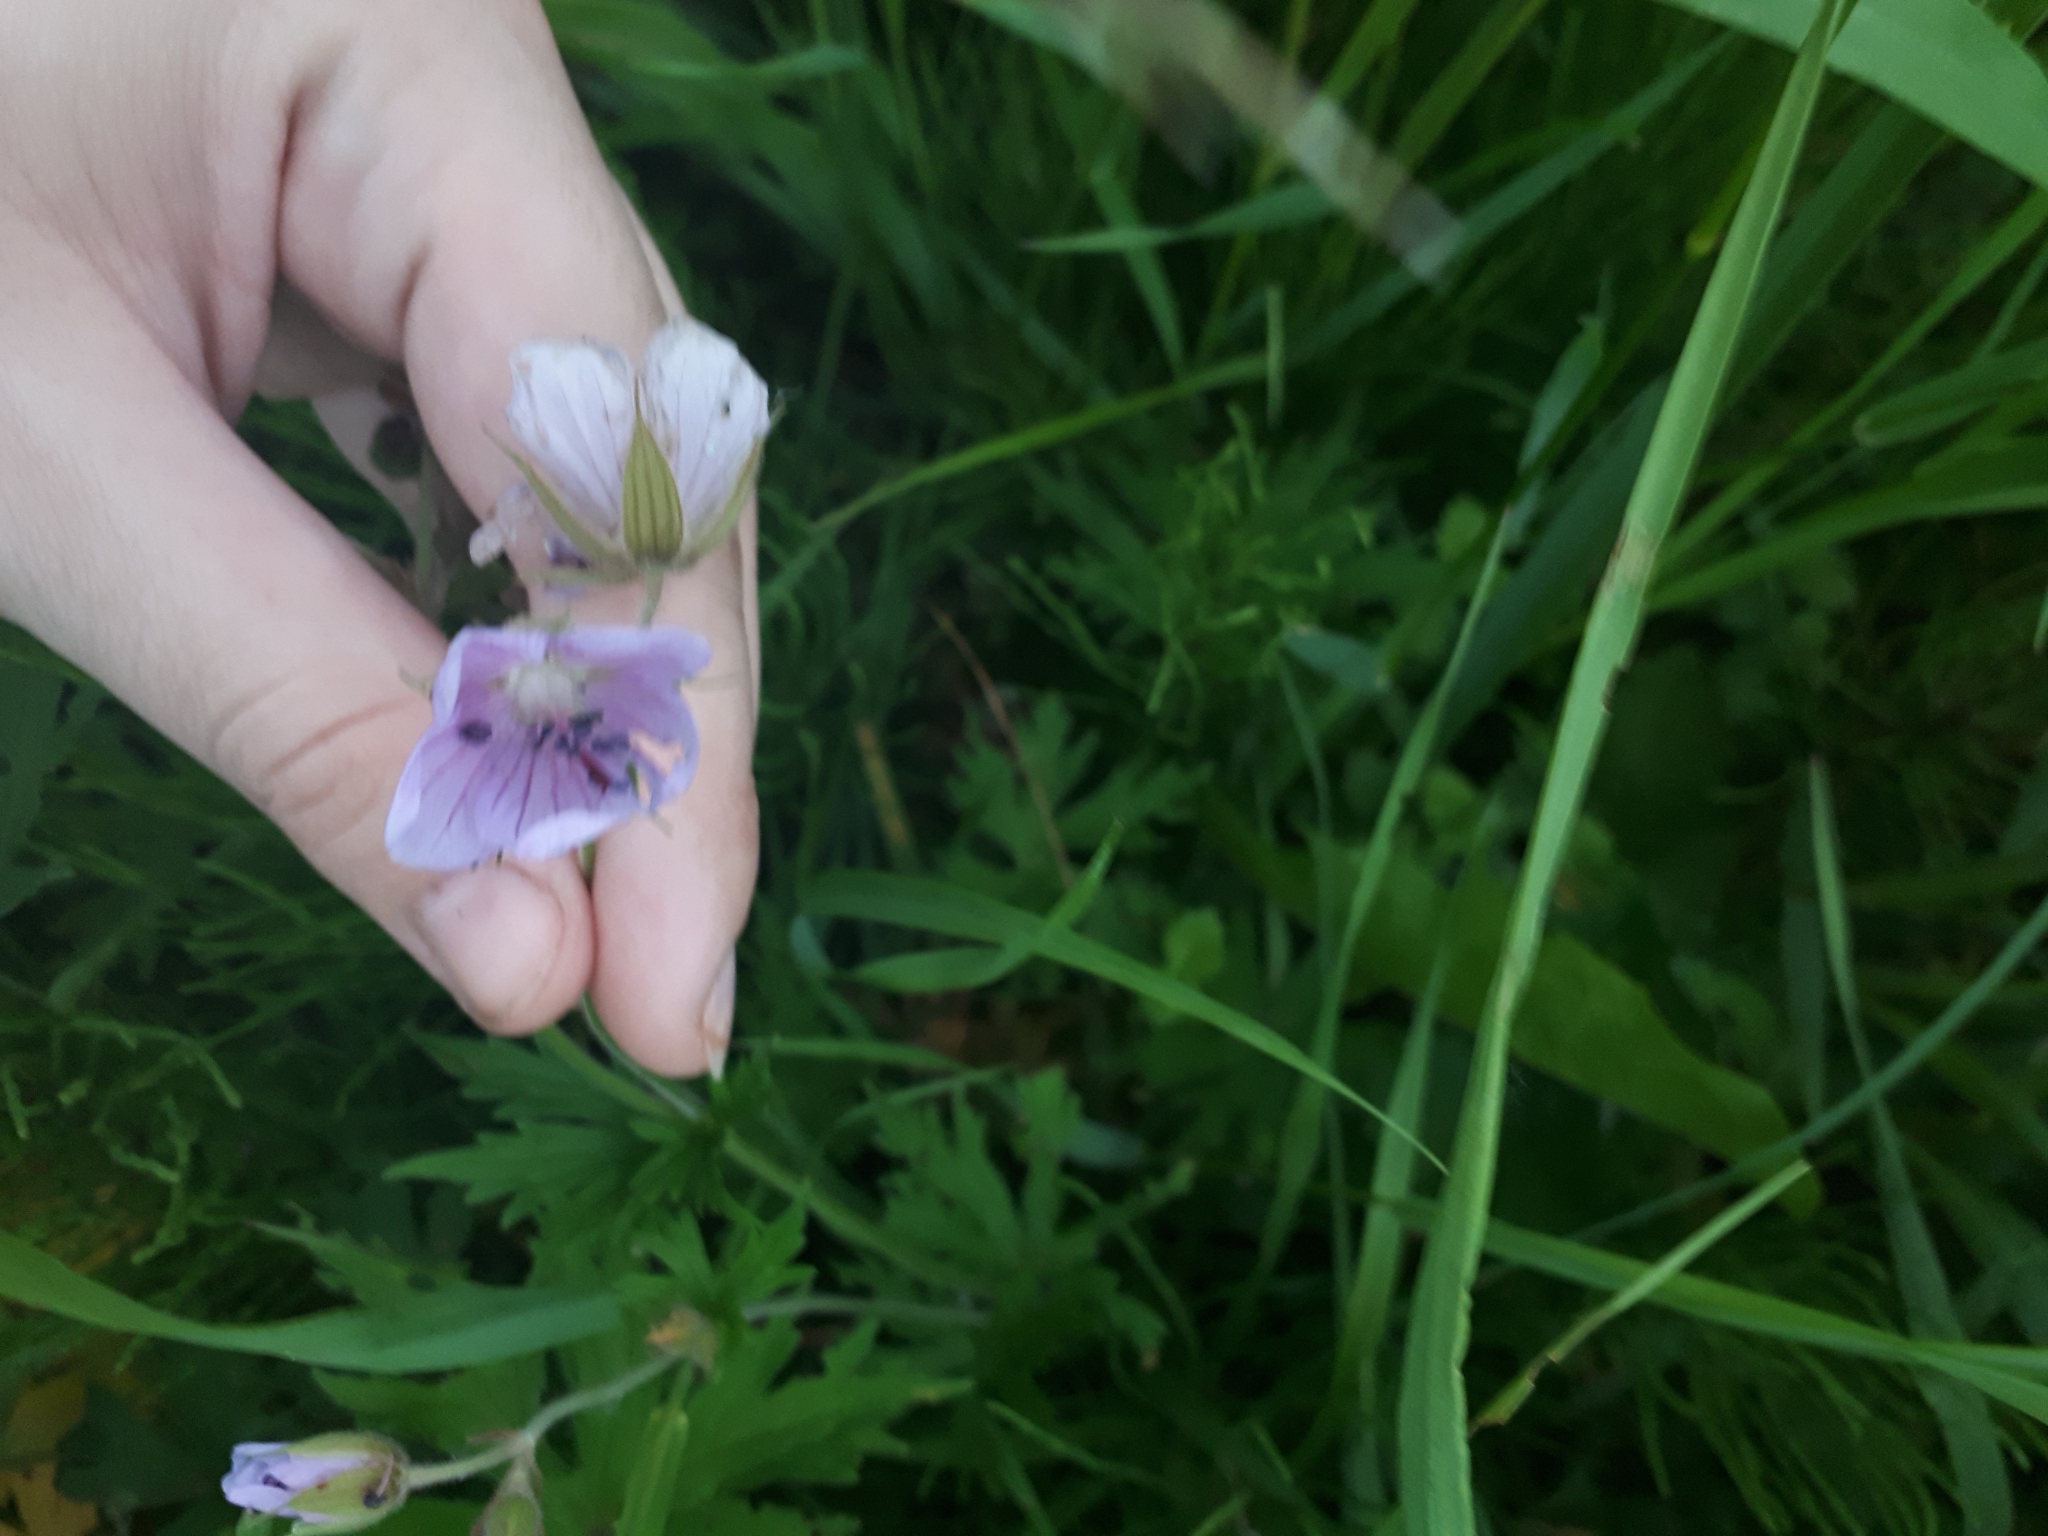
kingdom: Plantae
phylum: Tracheophyta
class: Magnoliopsida
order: Geraniales
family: Geraniaceae
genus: Geranium
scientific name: Geranium pratense
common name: Meadow crane's-bill
